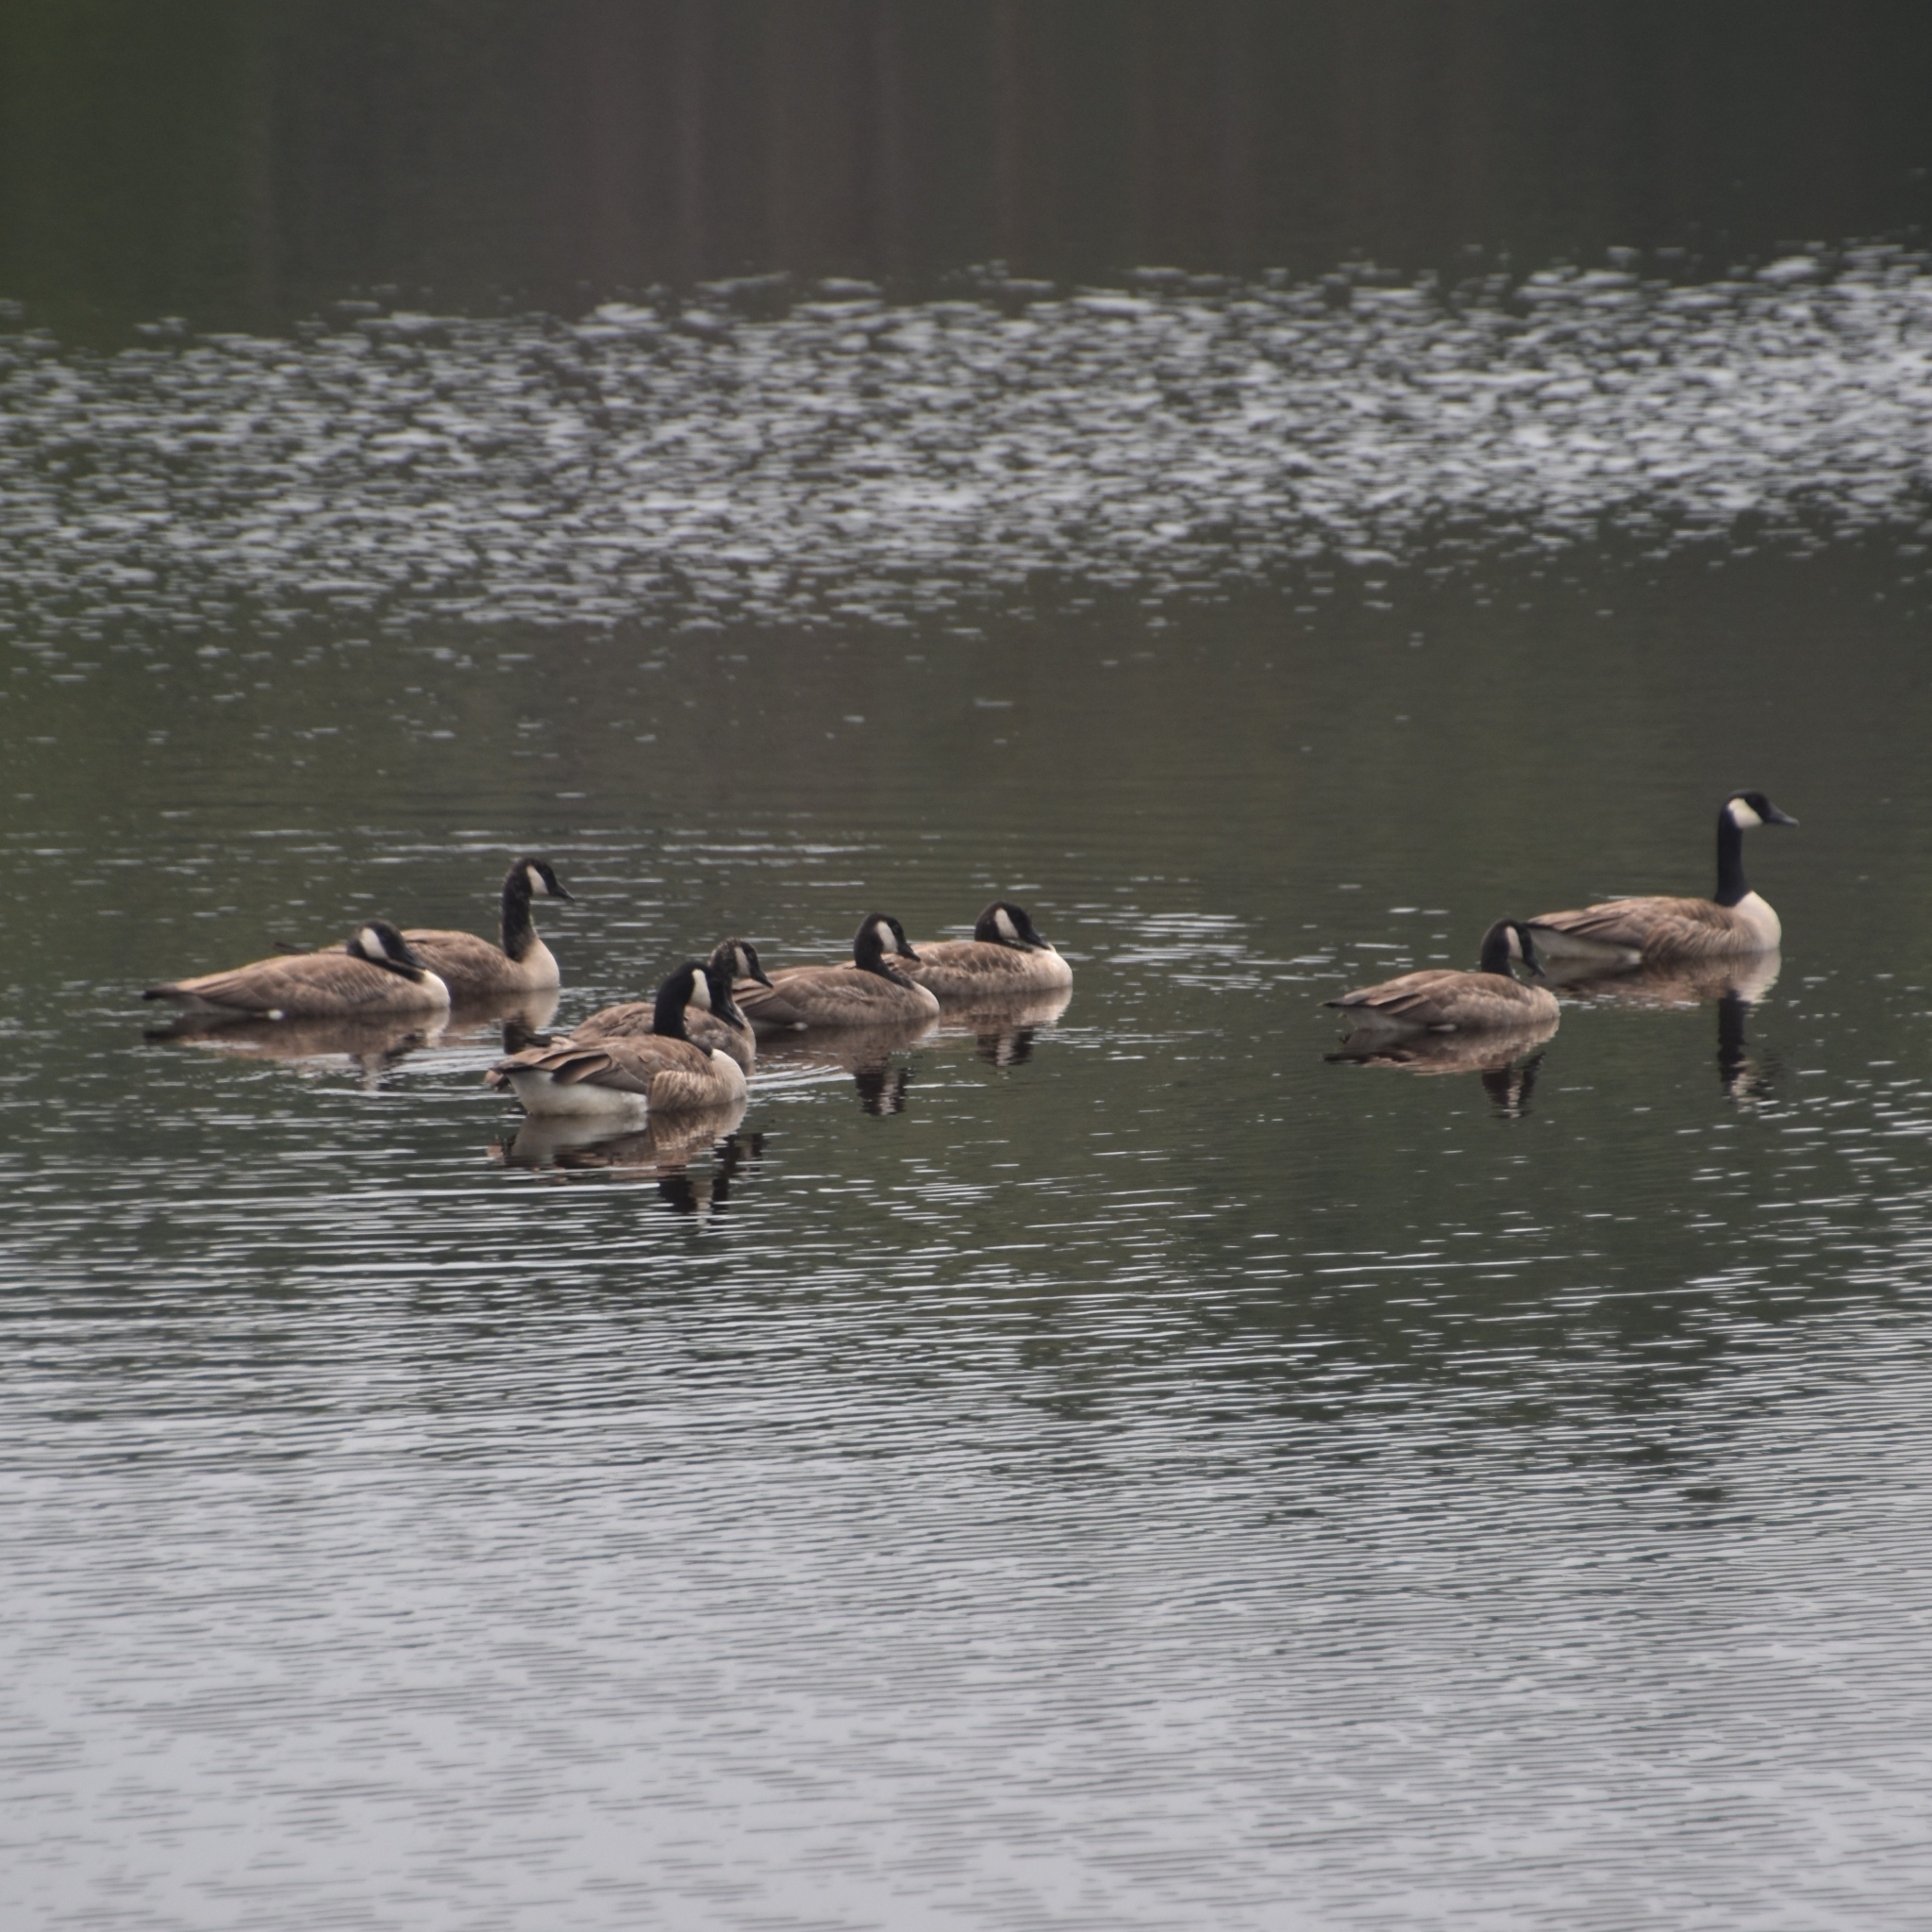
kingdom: Animalia
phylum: Chordata
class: Aves
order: Anseriformes
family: Anatidae
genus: Branta
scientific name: Branta canadensis
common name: Canada goose
